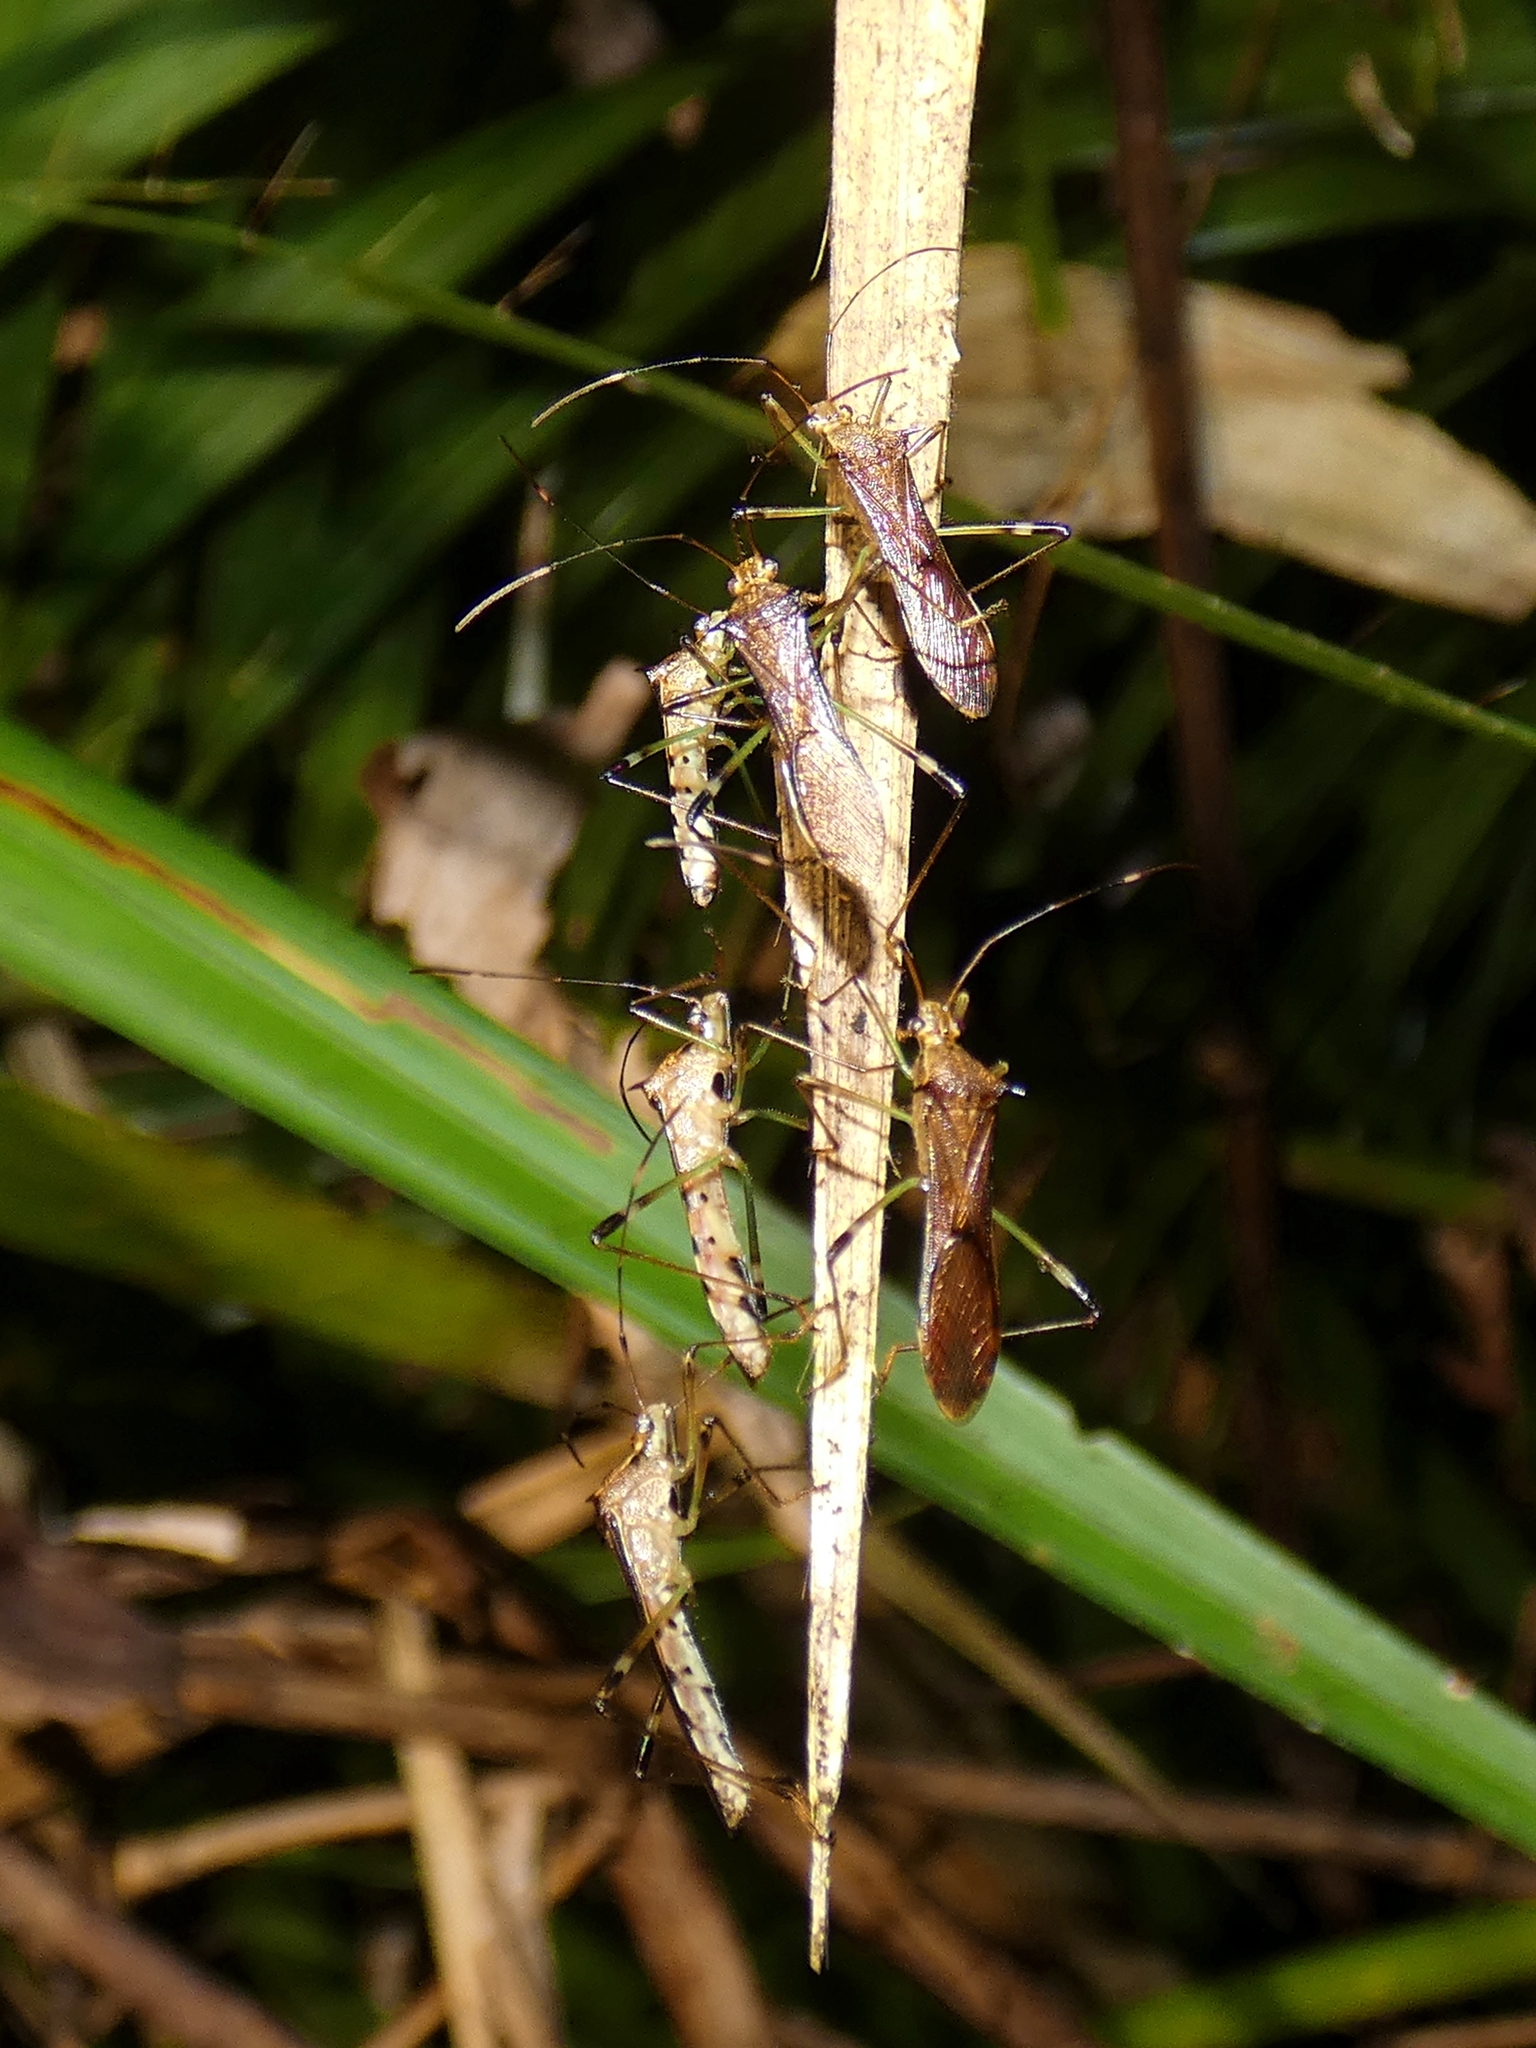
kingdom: Animalia
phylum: Arthropoda
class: Insecta
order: Hemiptera
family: Alydidae
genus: Noliphus
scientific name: Noliphus annulipes
